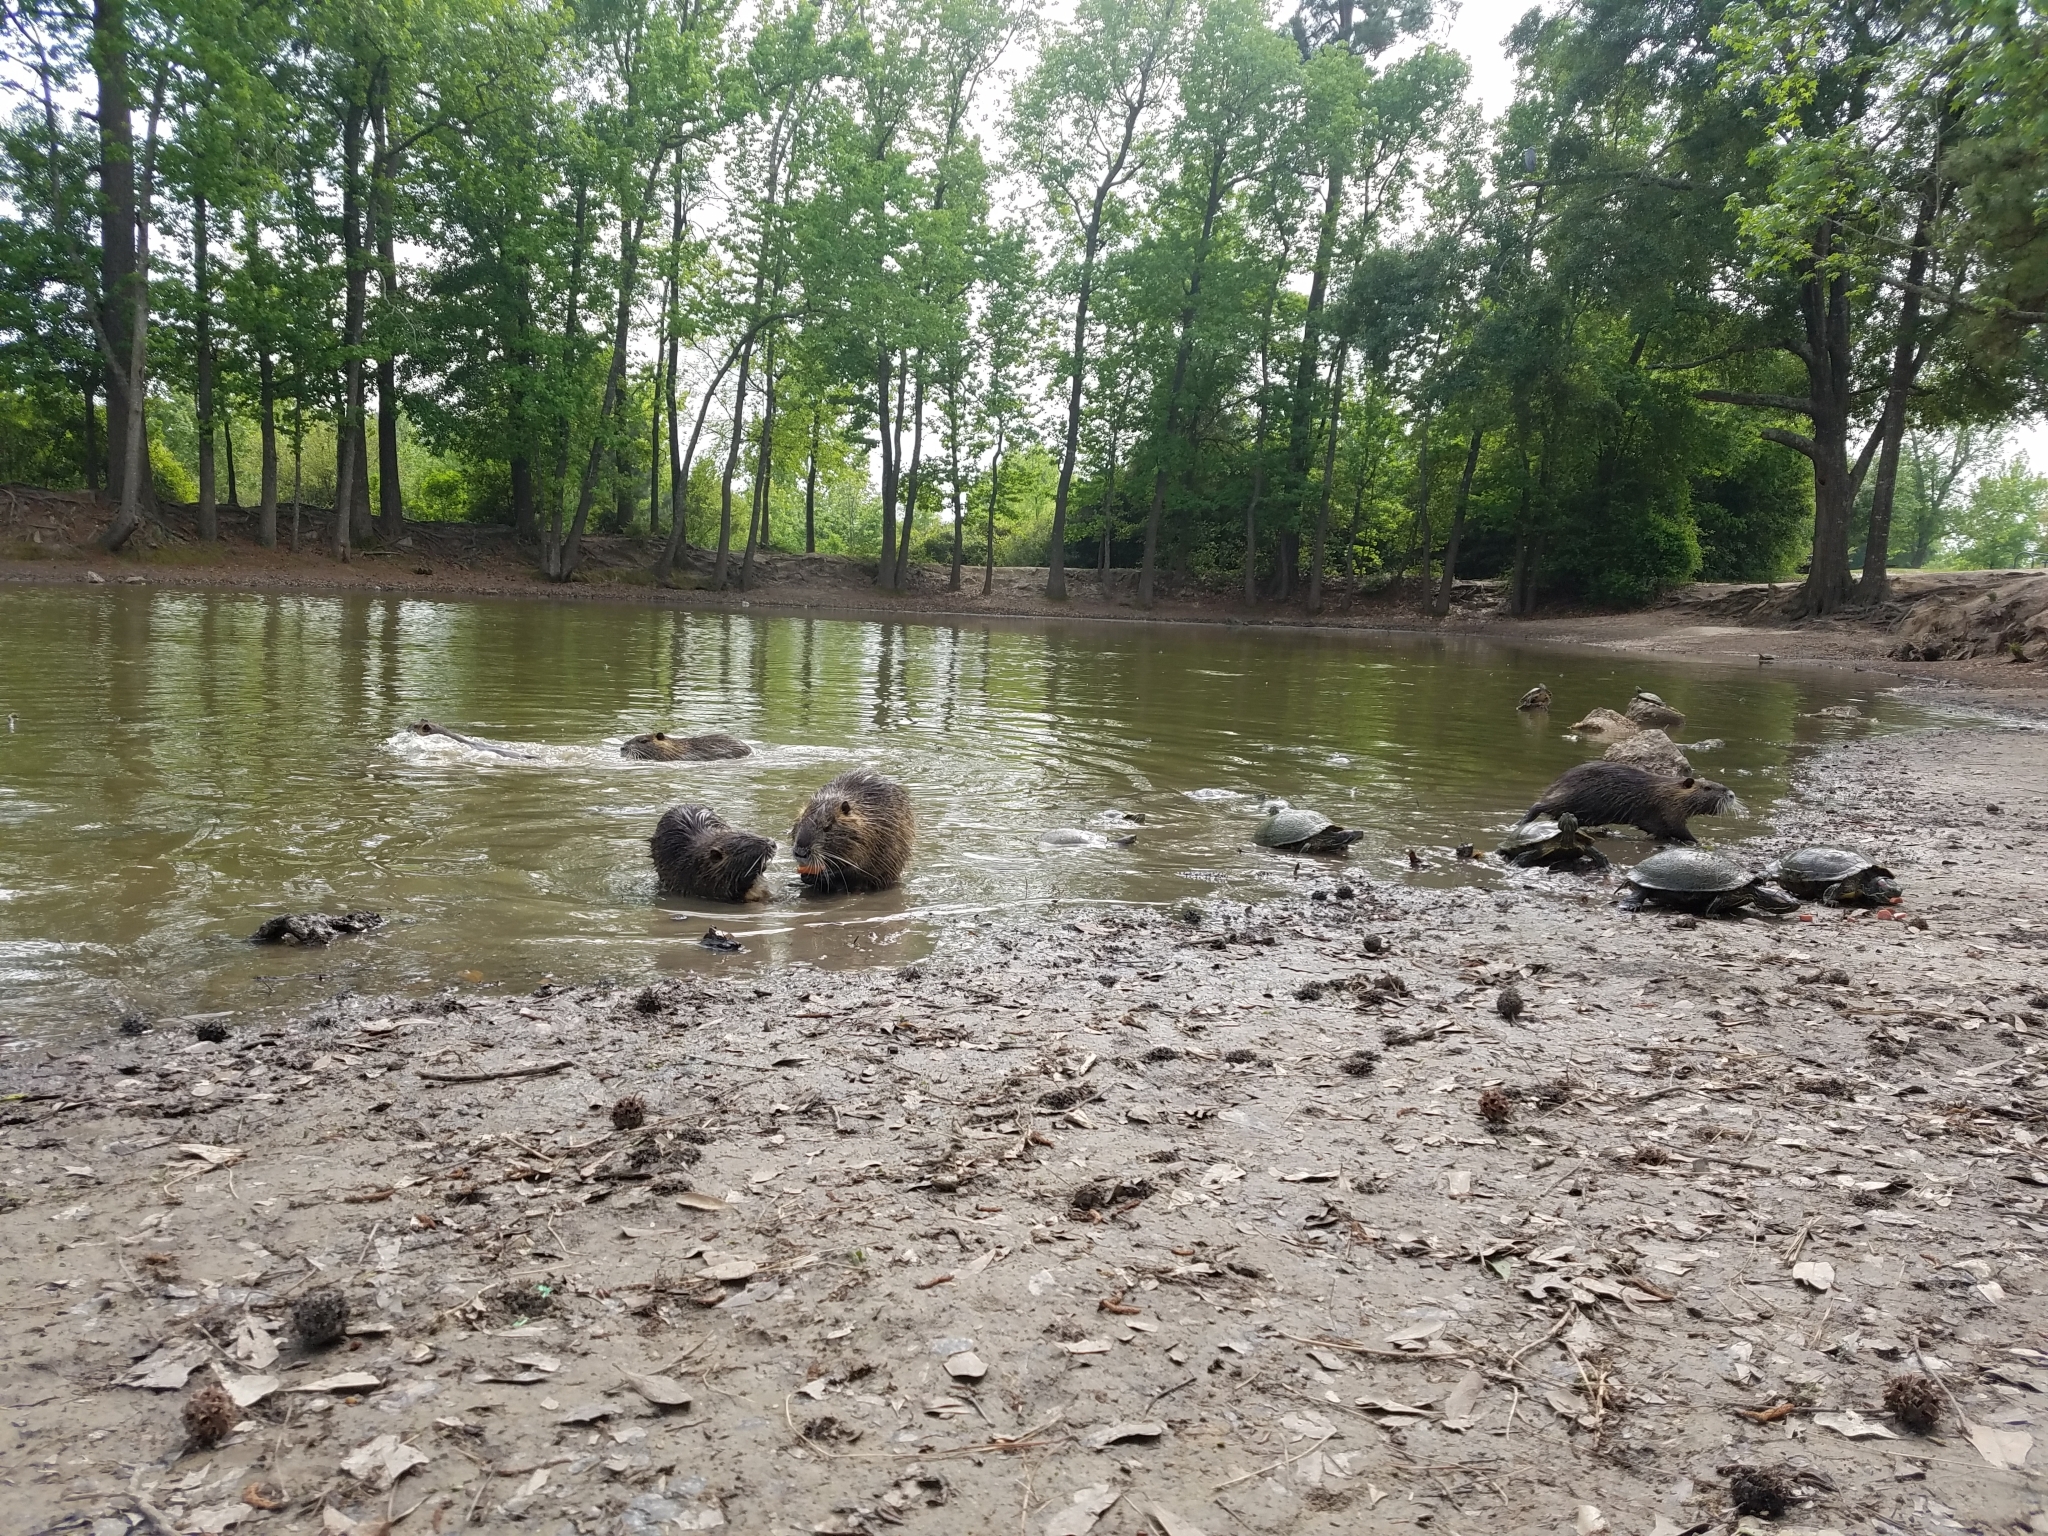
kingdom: Animalia
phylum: Chordata
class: Mammalia
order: Rodentia
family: Myocastoridae
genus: Myocastor
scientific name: Myocastor coypus
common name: Coypu
